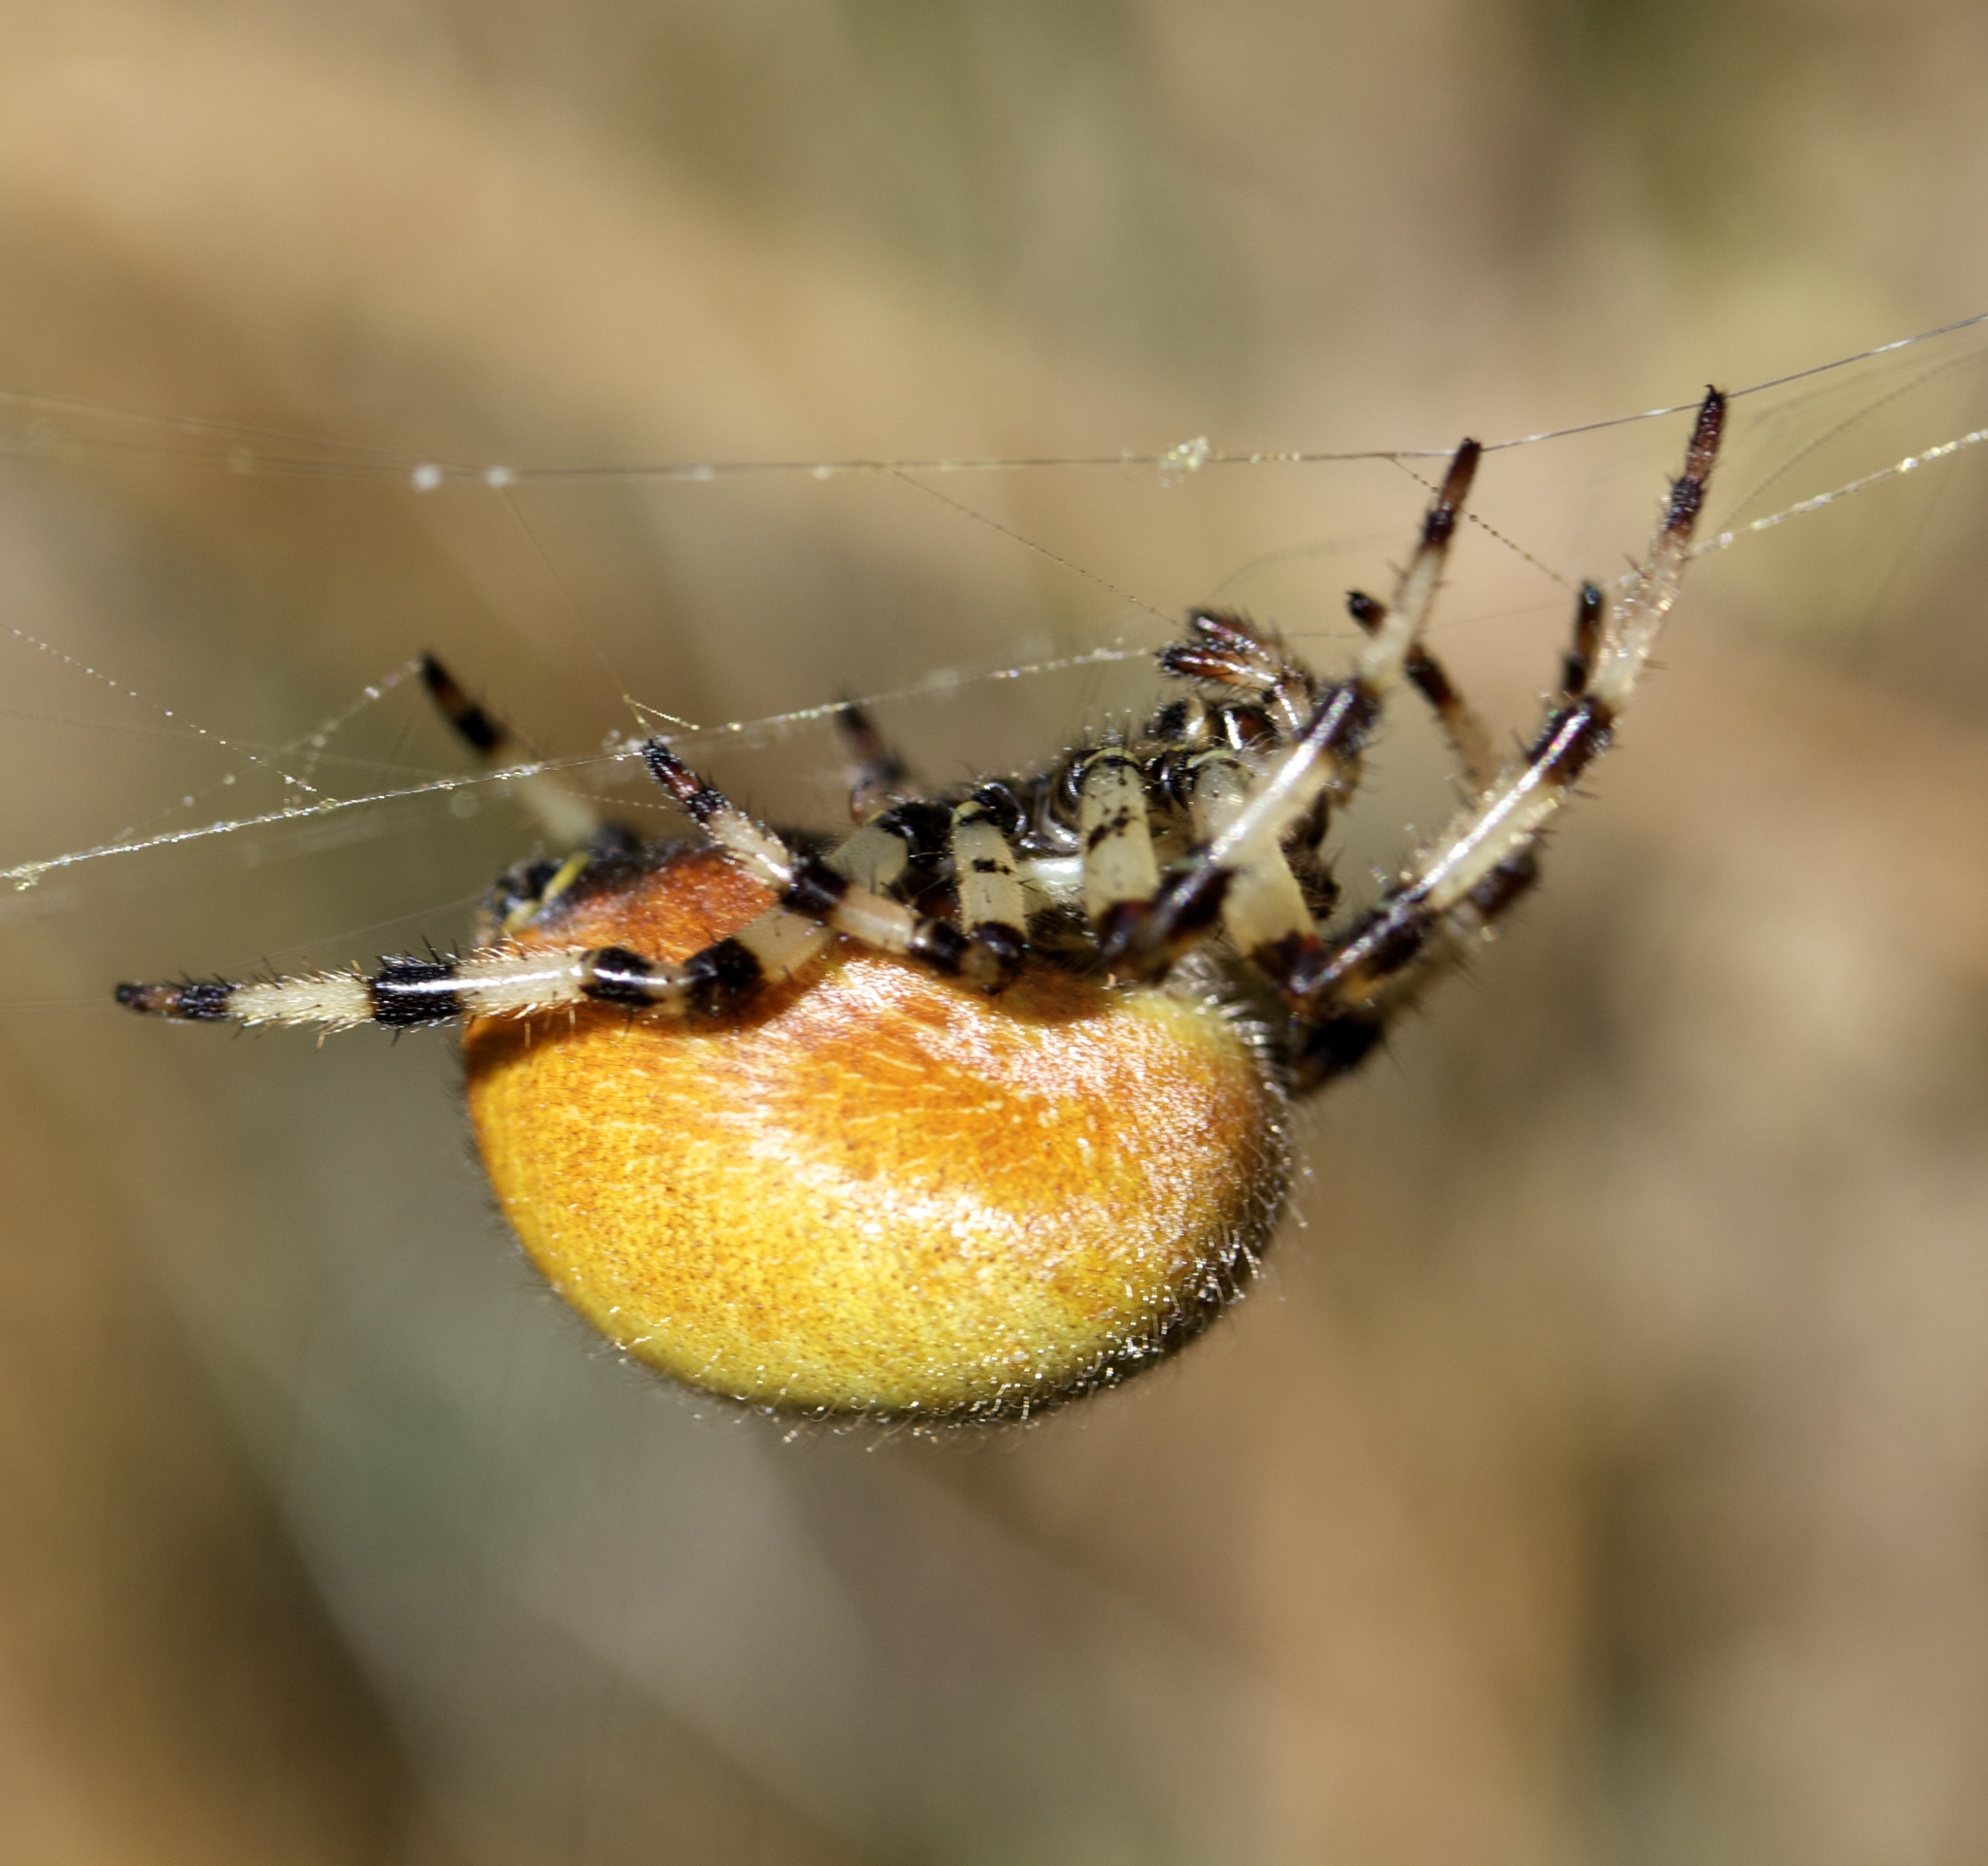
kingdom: Animalia
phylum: Arthropoda
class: Arachnida
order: Araneae
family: Araneidae
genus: Araneus
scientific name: Araneus trifolium
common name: Shamrock orbweaver
